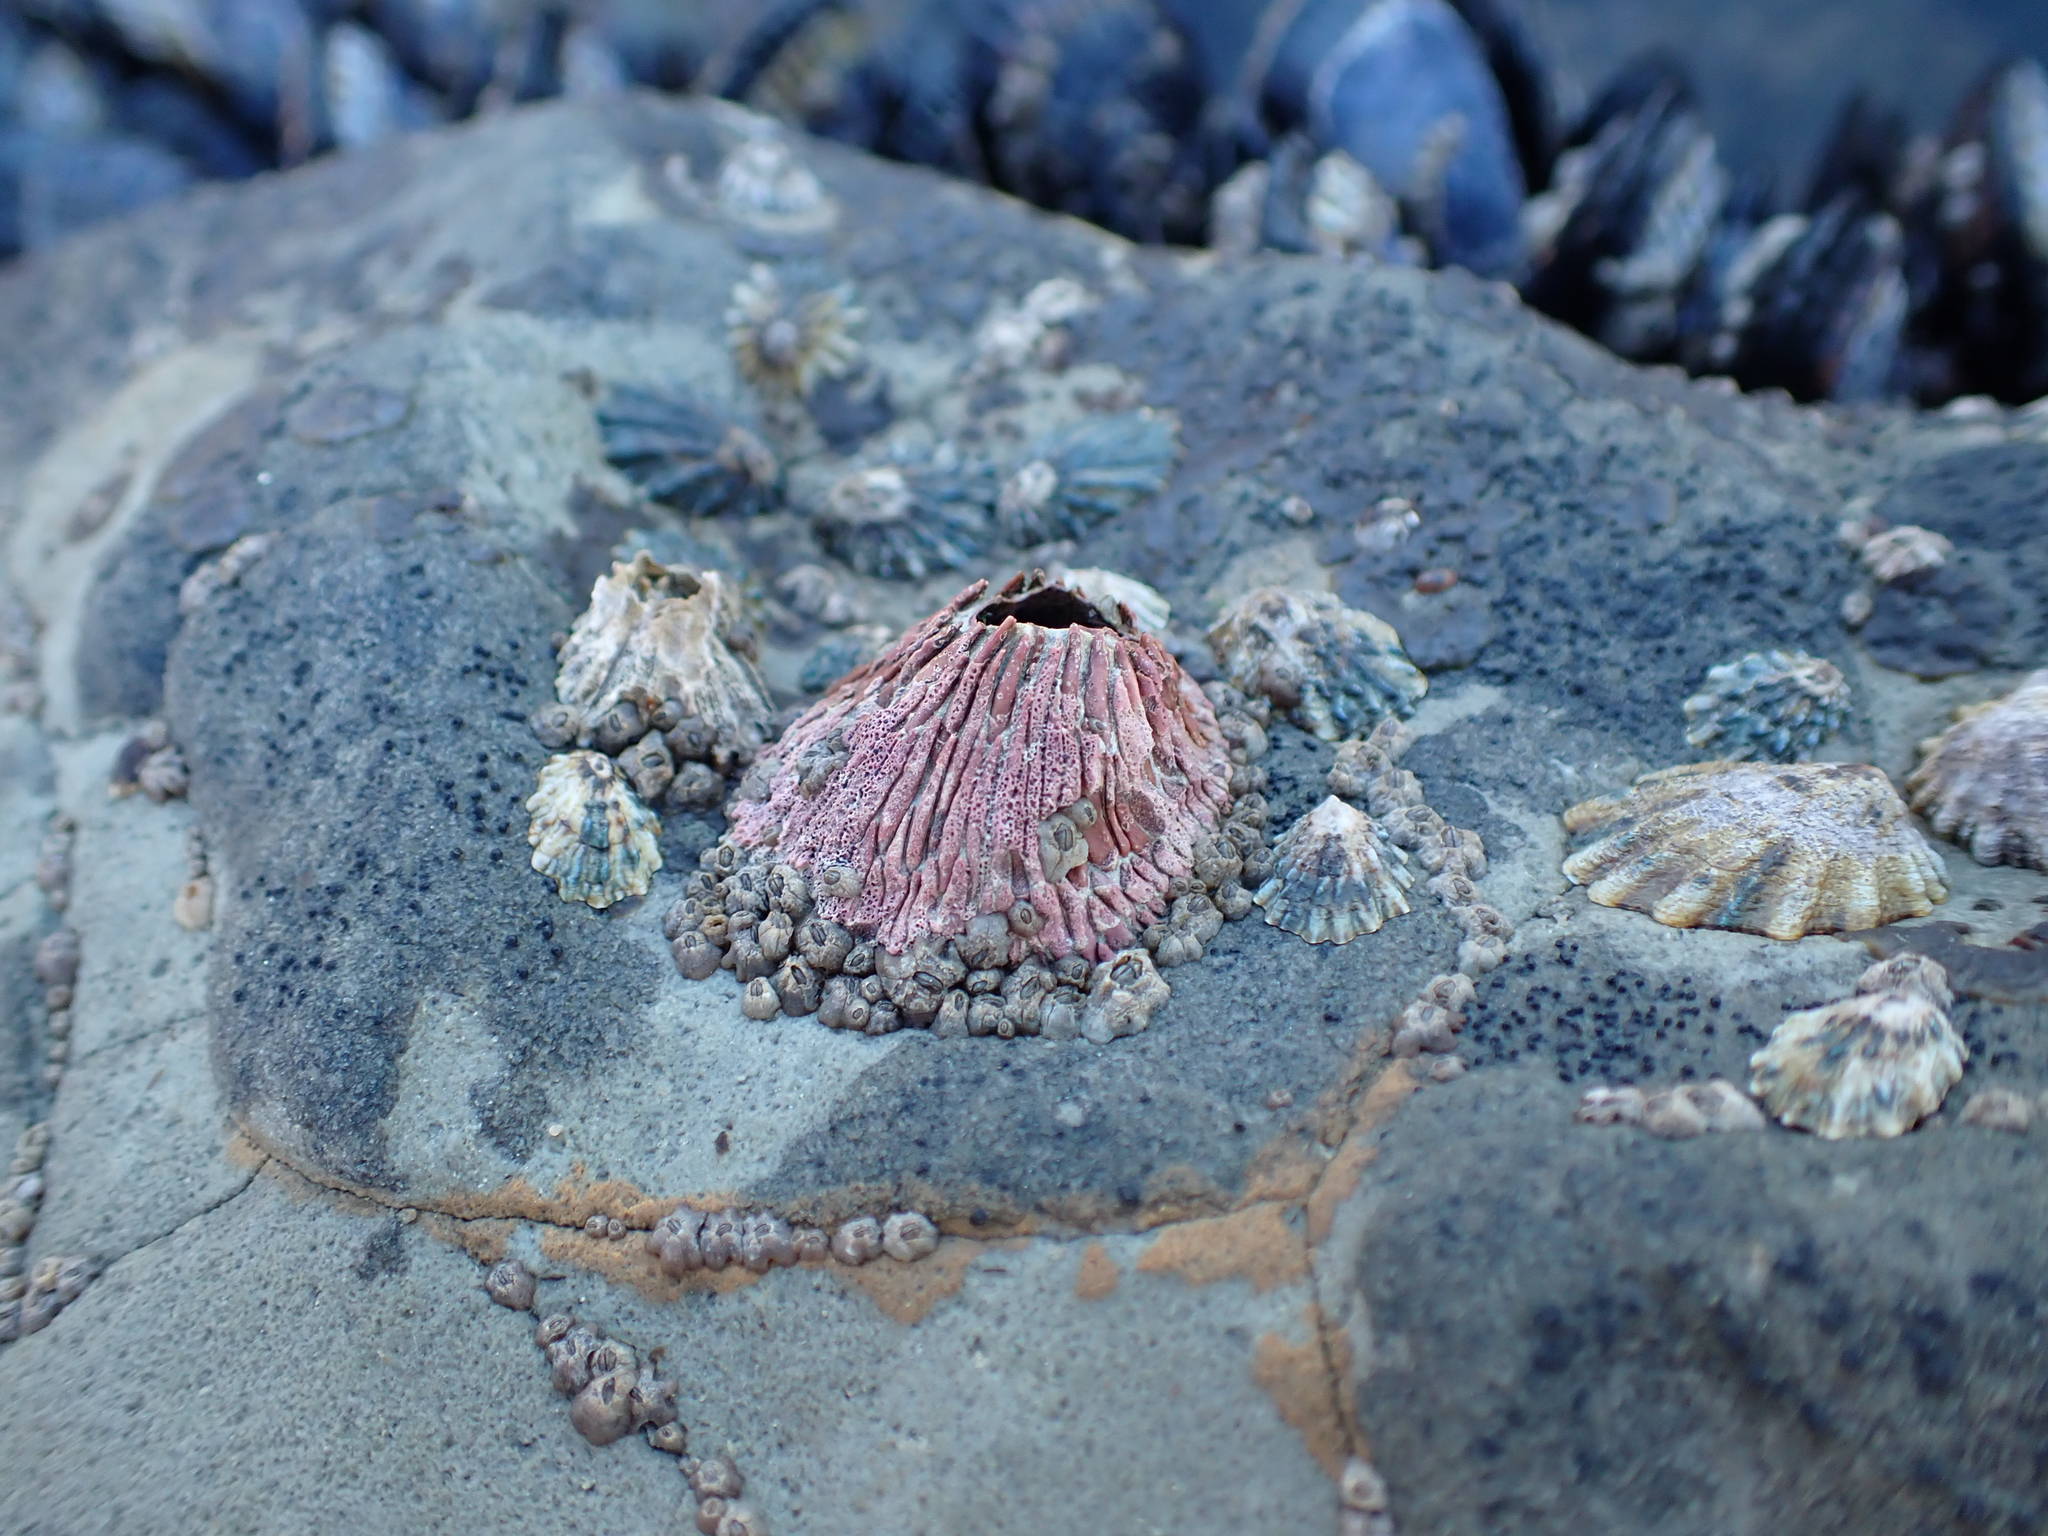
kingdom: Animalia
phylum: Arthropoda
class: Maxillopoda
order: Sessilia
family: Tetraclitidae
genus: Tetraclita
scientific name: Tetraclita rubescens
